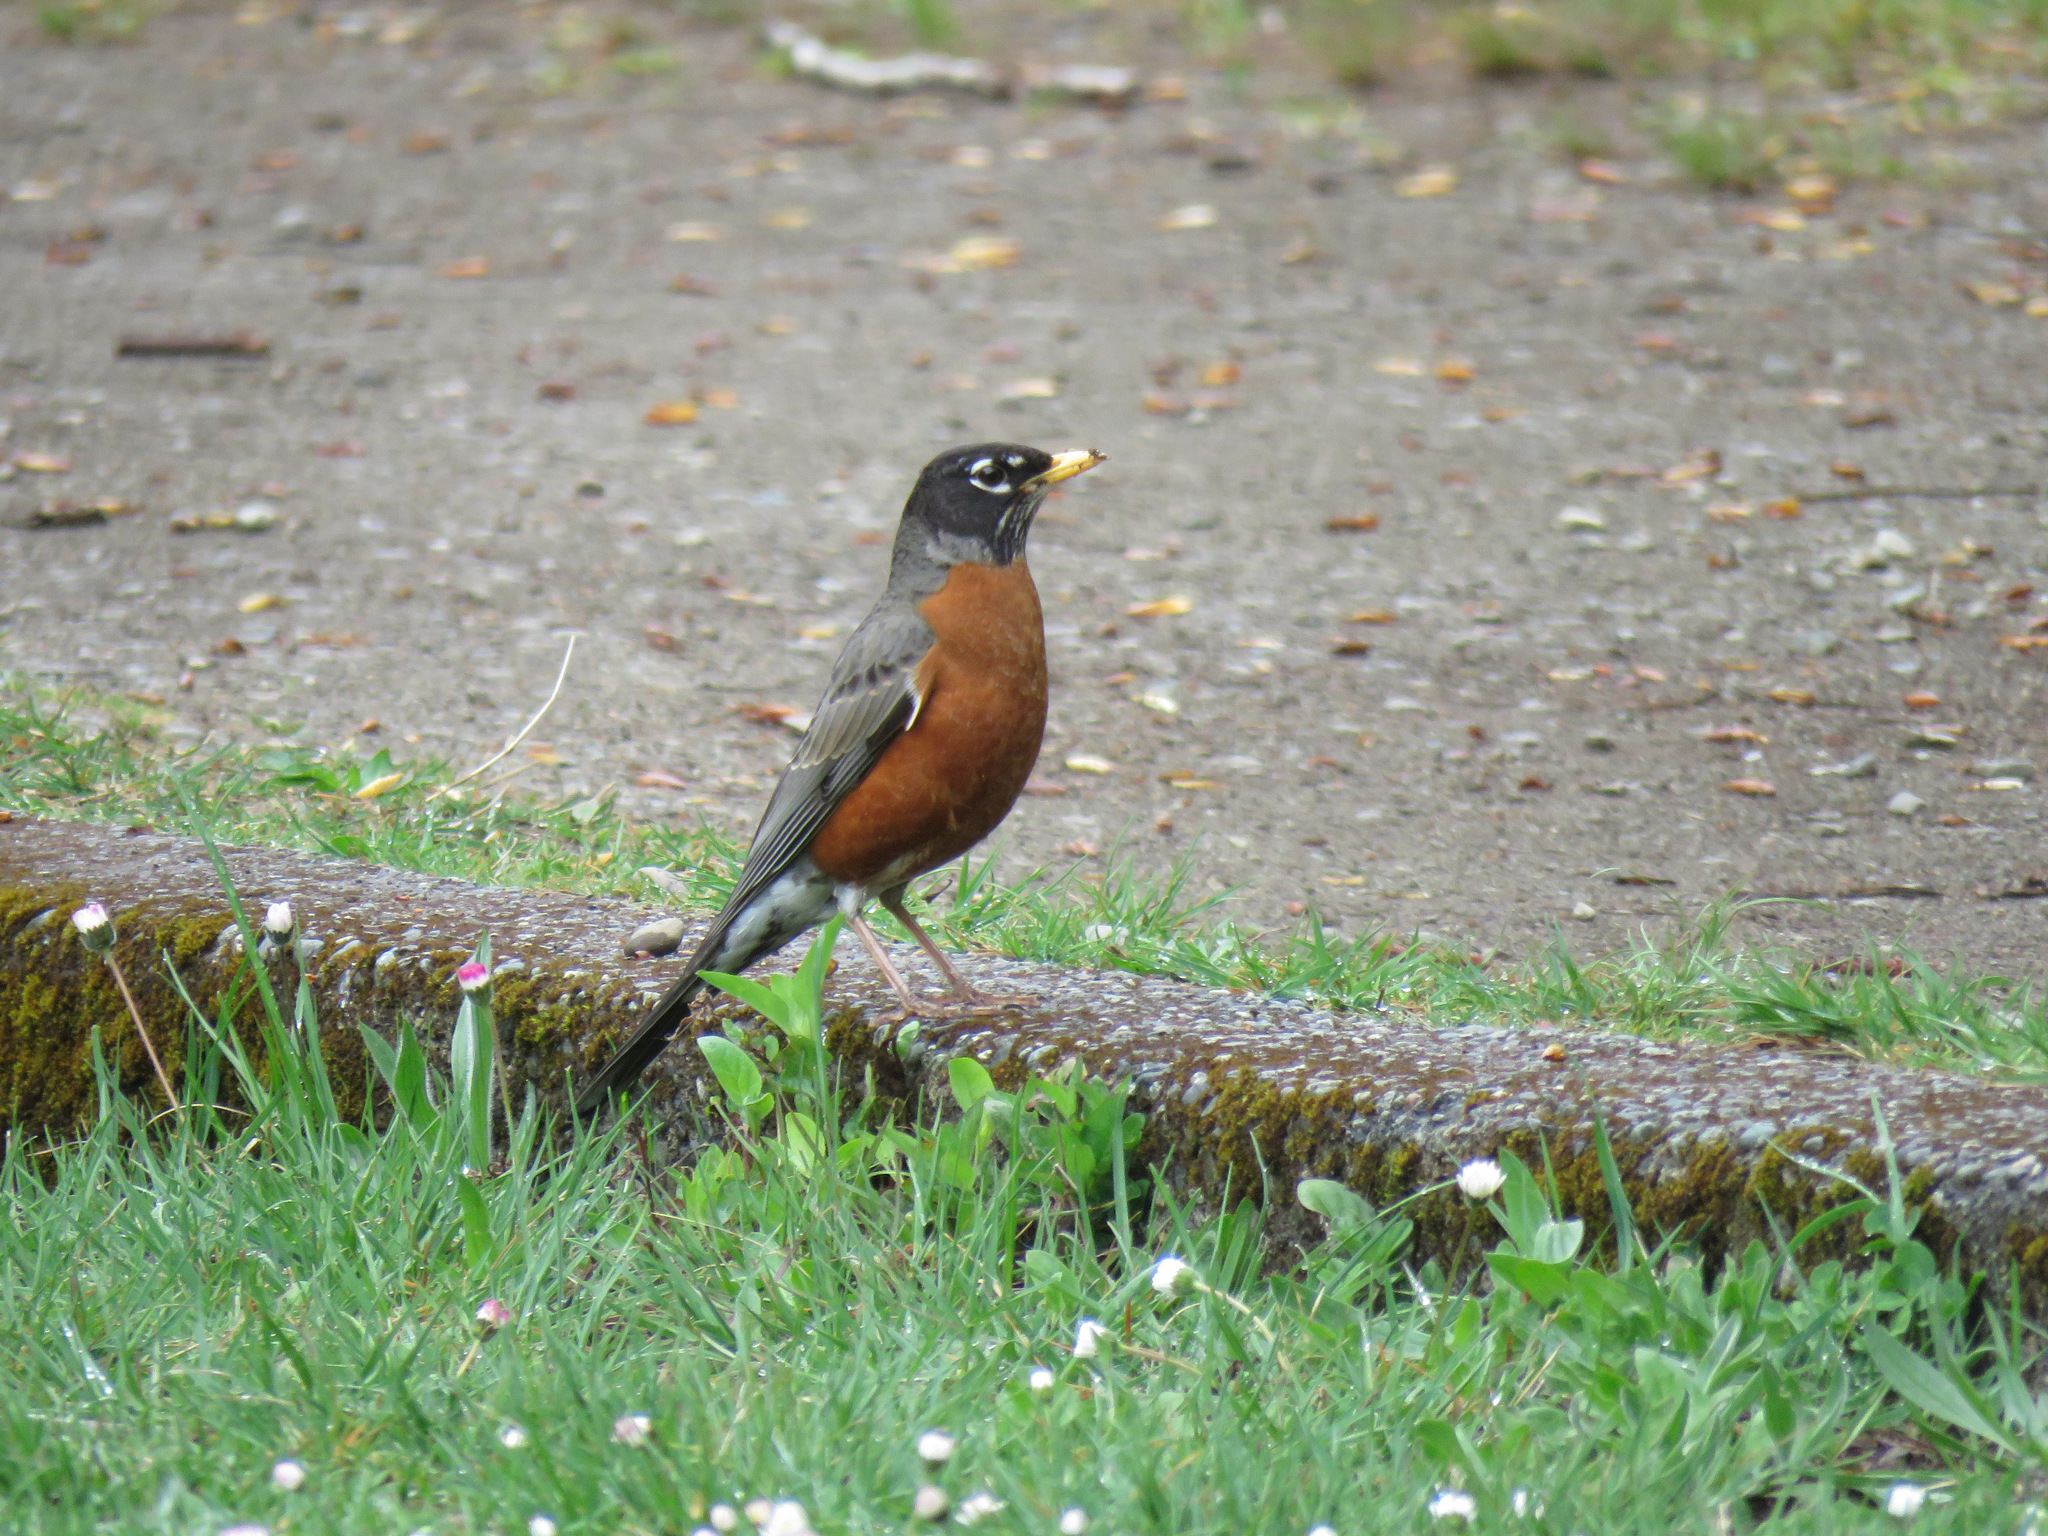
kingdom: Animalia
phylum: Chordata
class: Aves
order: Passeriformes
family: Turdidae
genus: Turdus
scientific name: Turdus migratorius
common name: American robin
